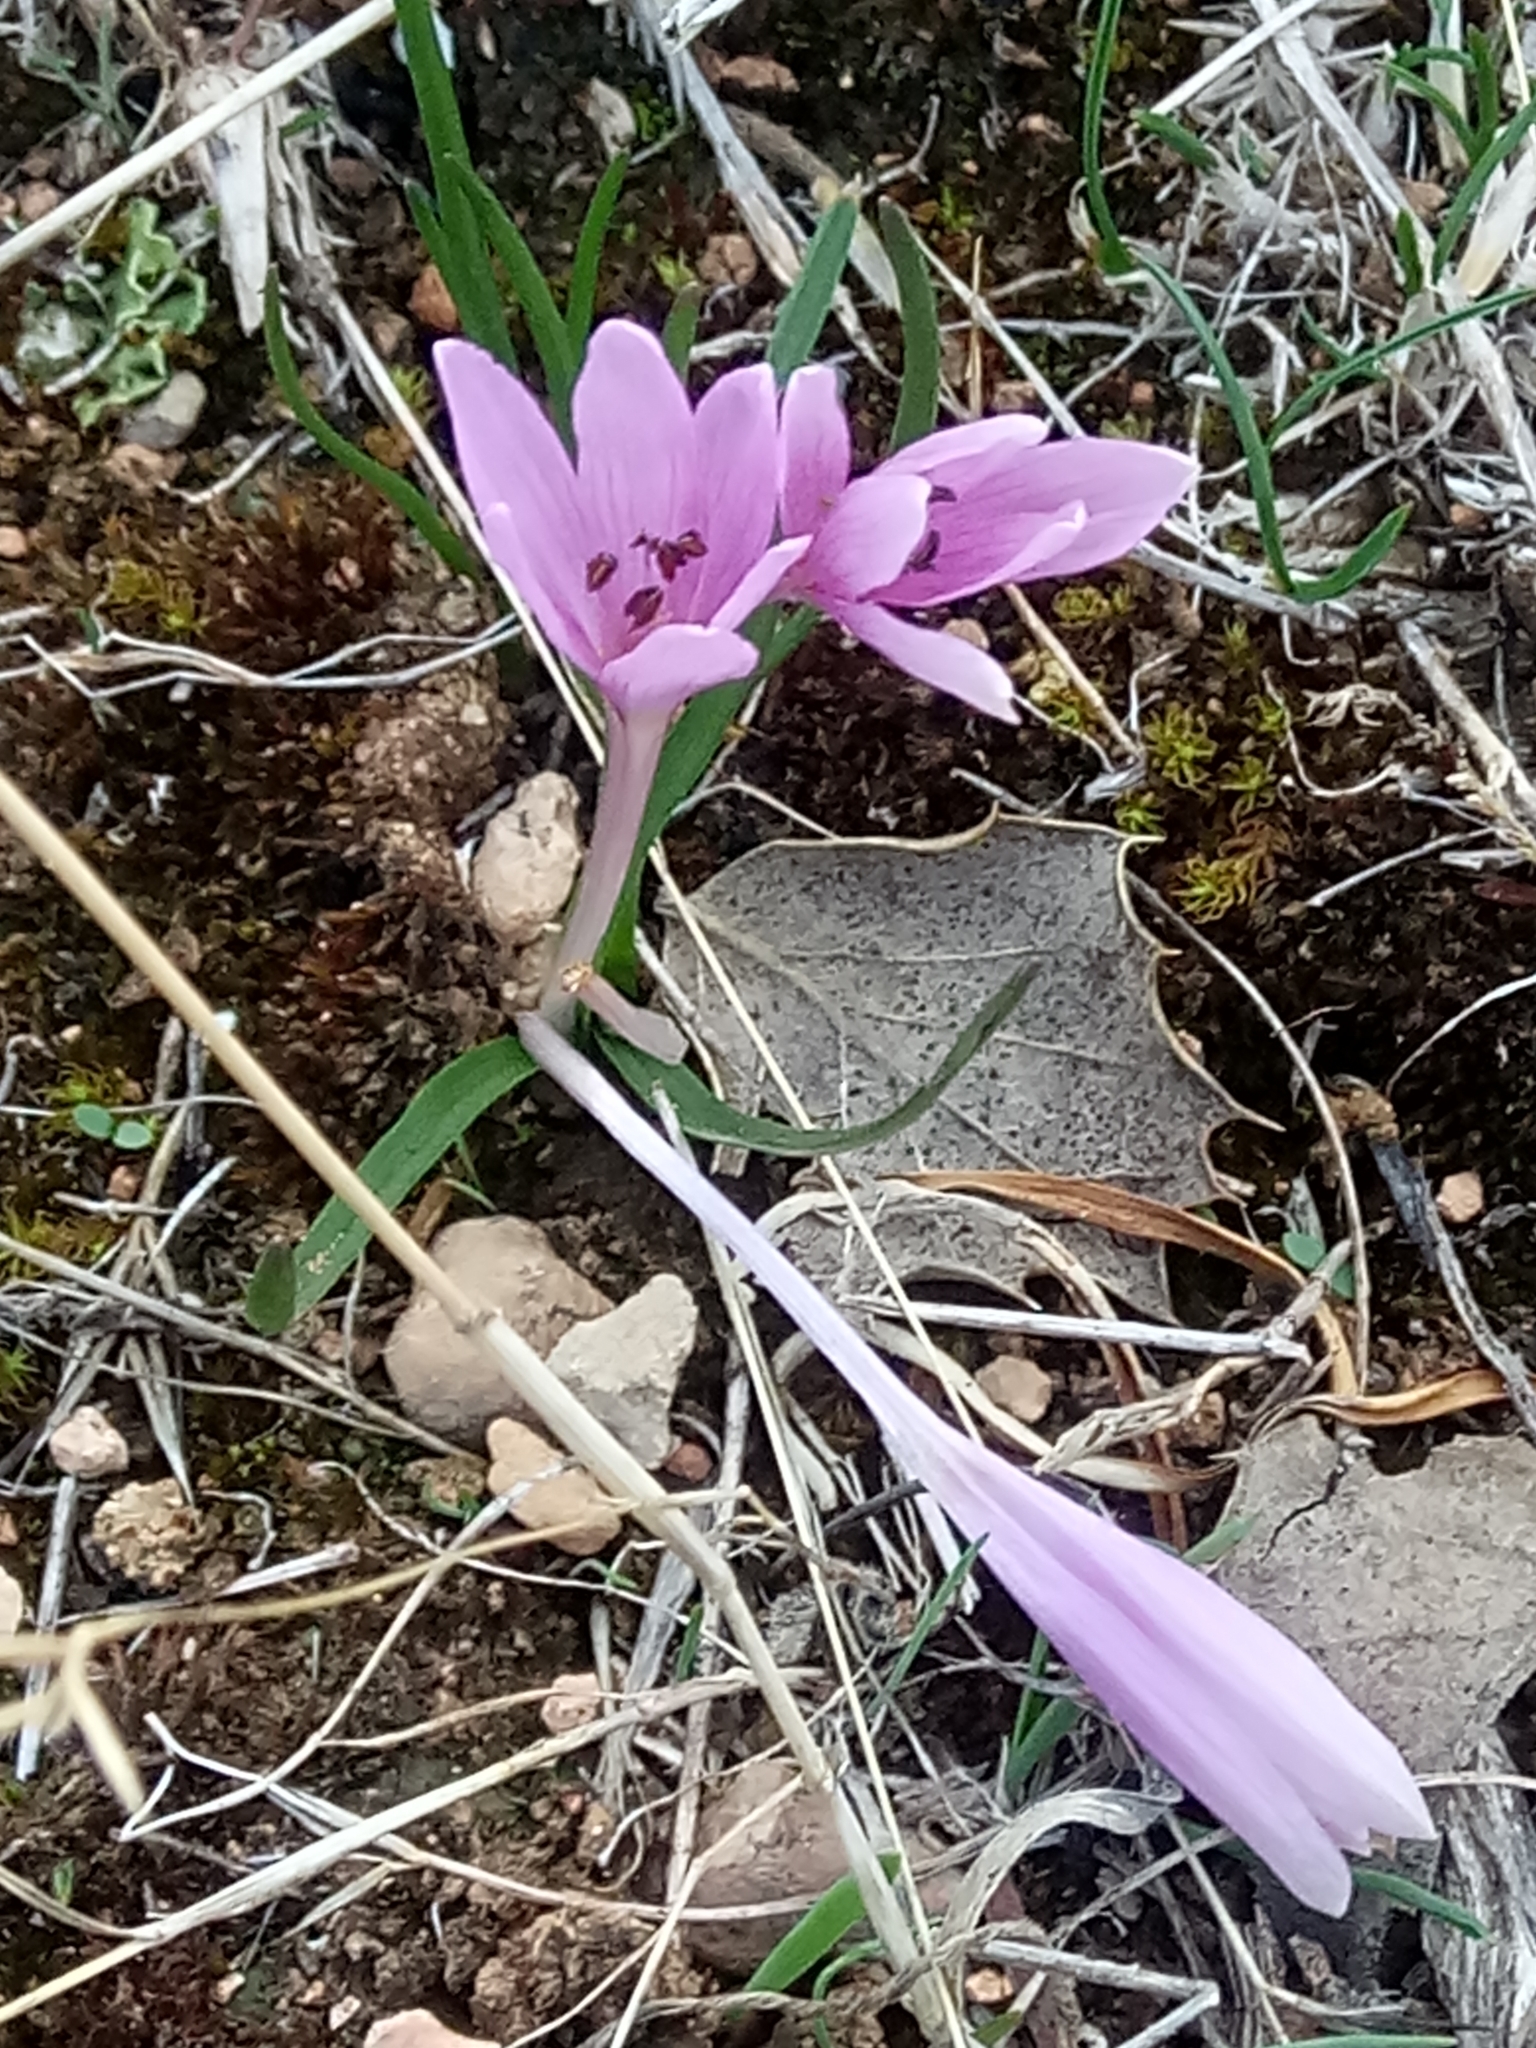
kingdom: Plantae
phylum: Tracheophyta
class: Liliopsida
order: Liliales
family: Colchicaceae
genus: Colchicum
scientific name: Colchicum cupanii
